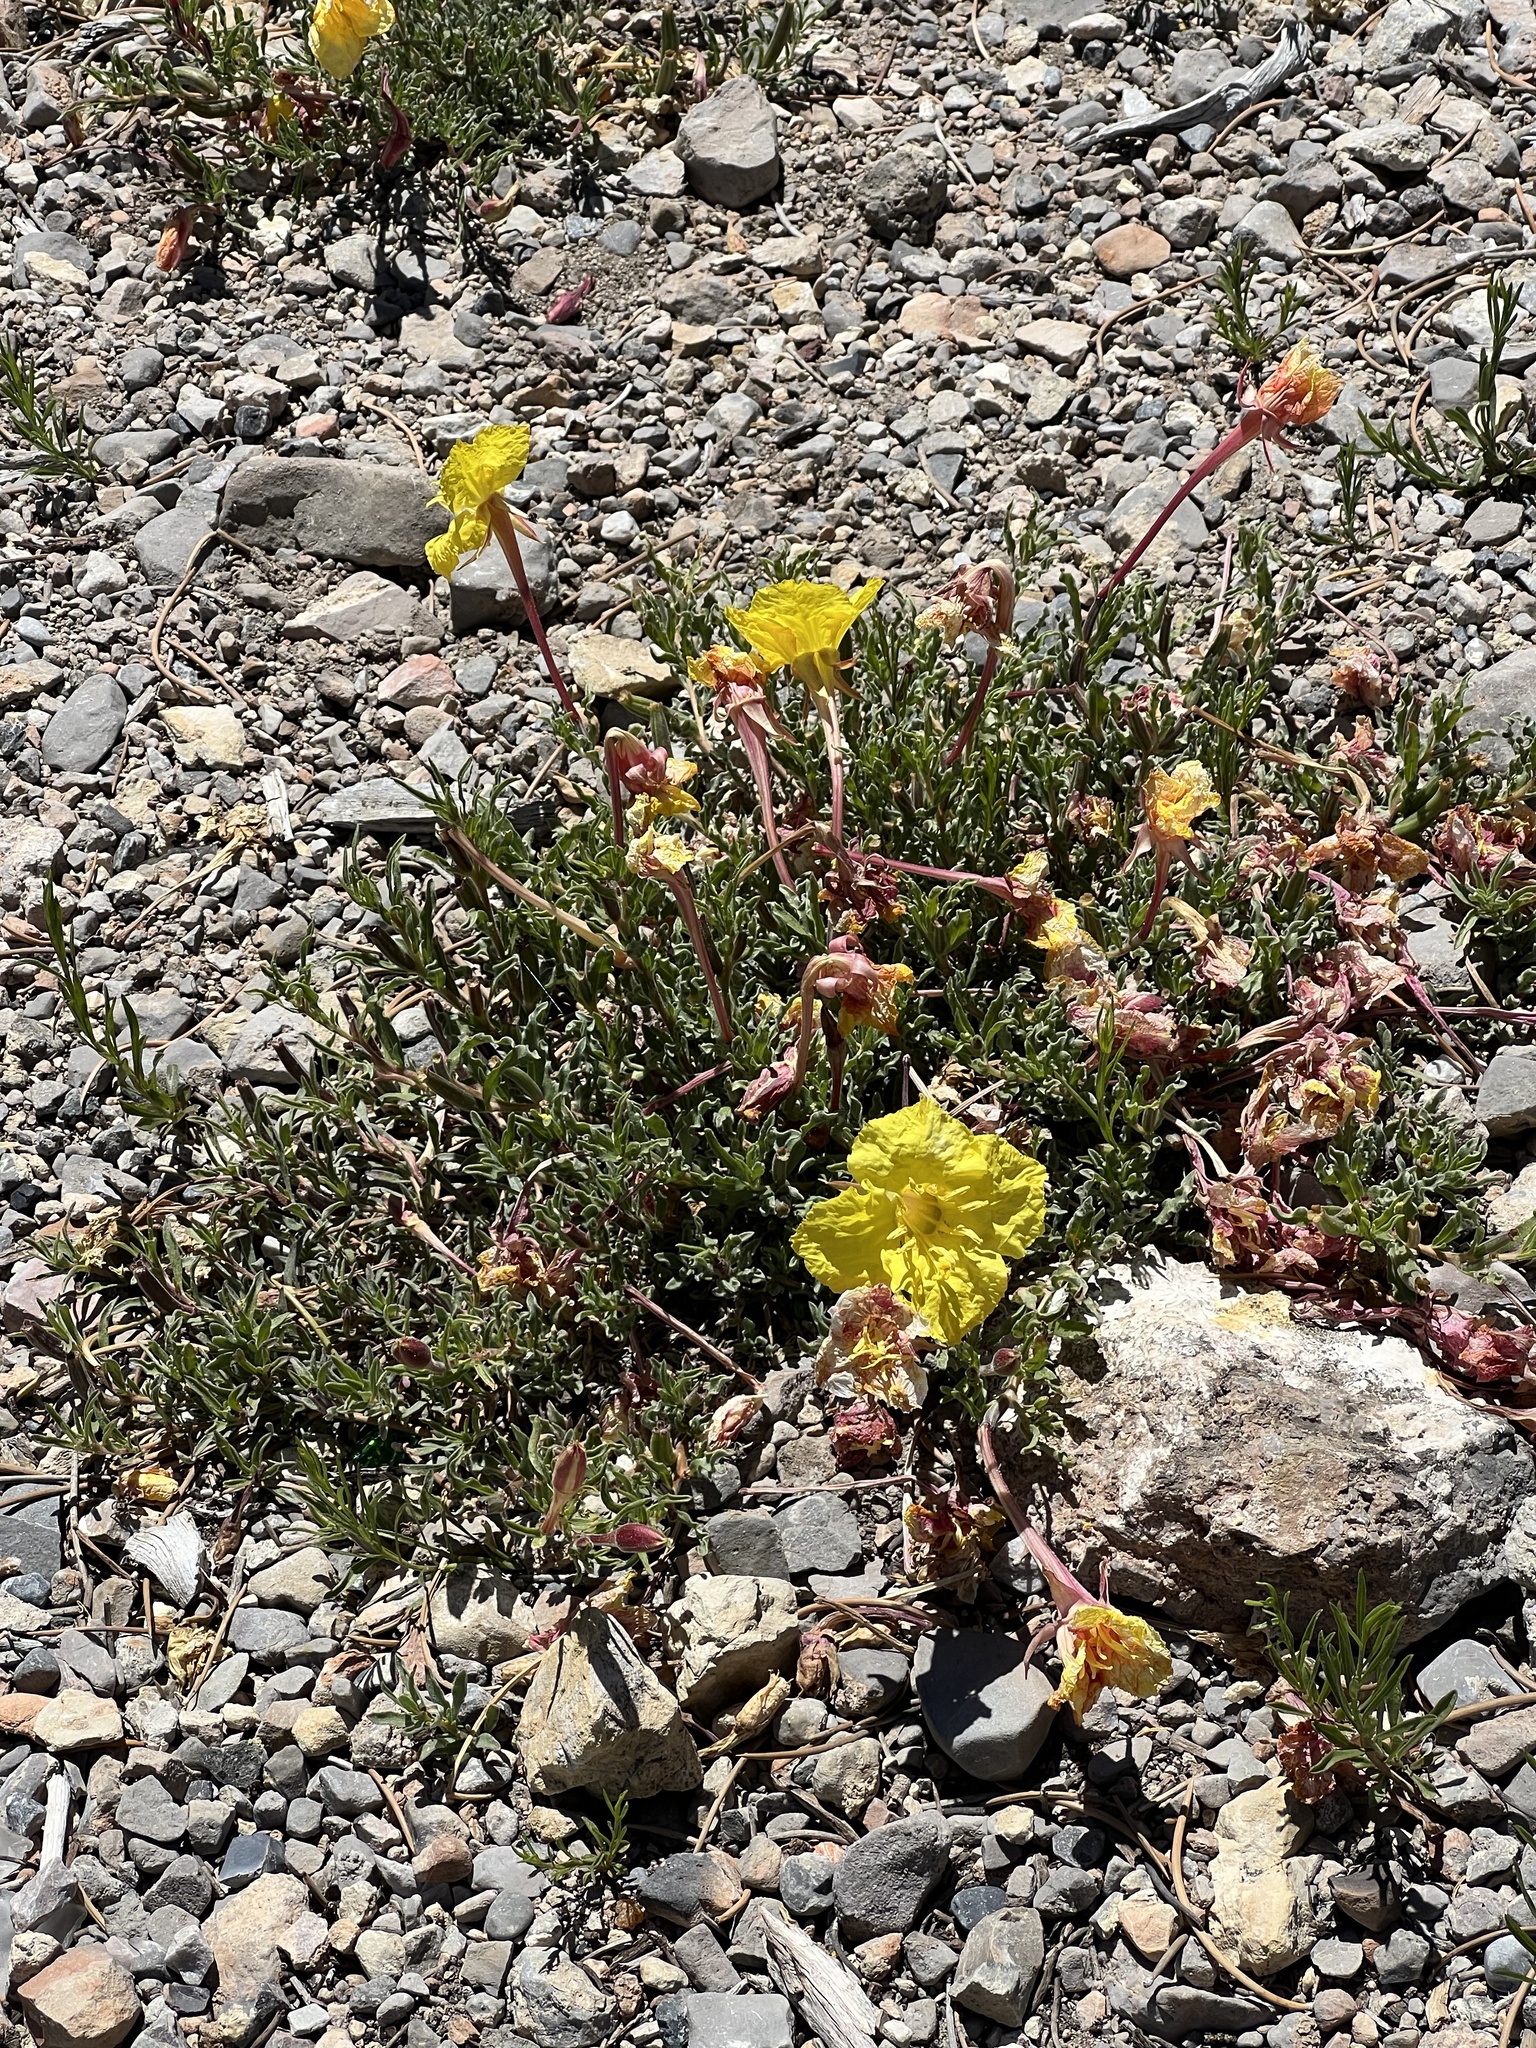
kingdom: Plantae
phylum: Tracheophyta
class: Magnoliopsida
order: Myrtales
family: Onagraceae
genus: Oenothera
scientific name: Oenothera lavandulifolia
